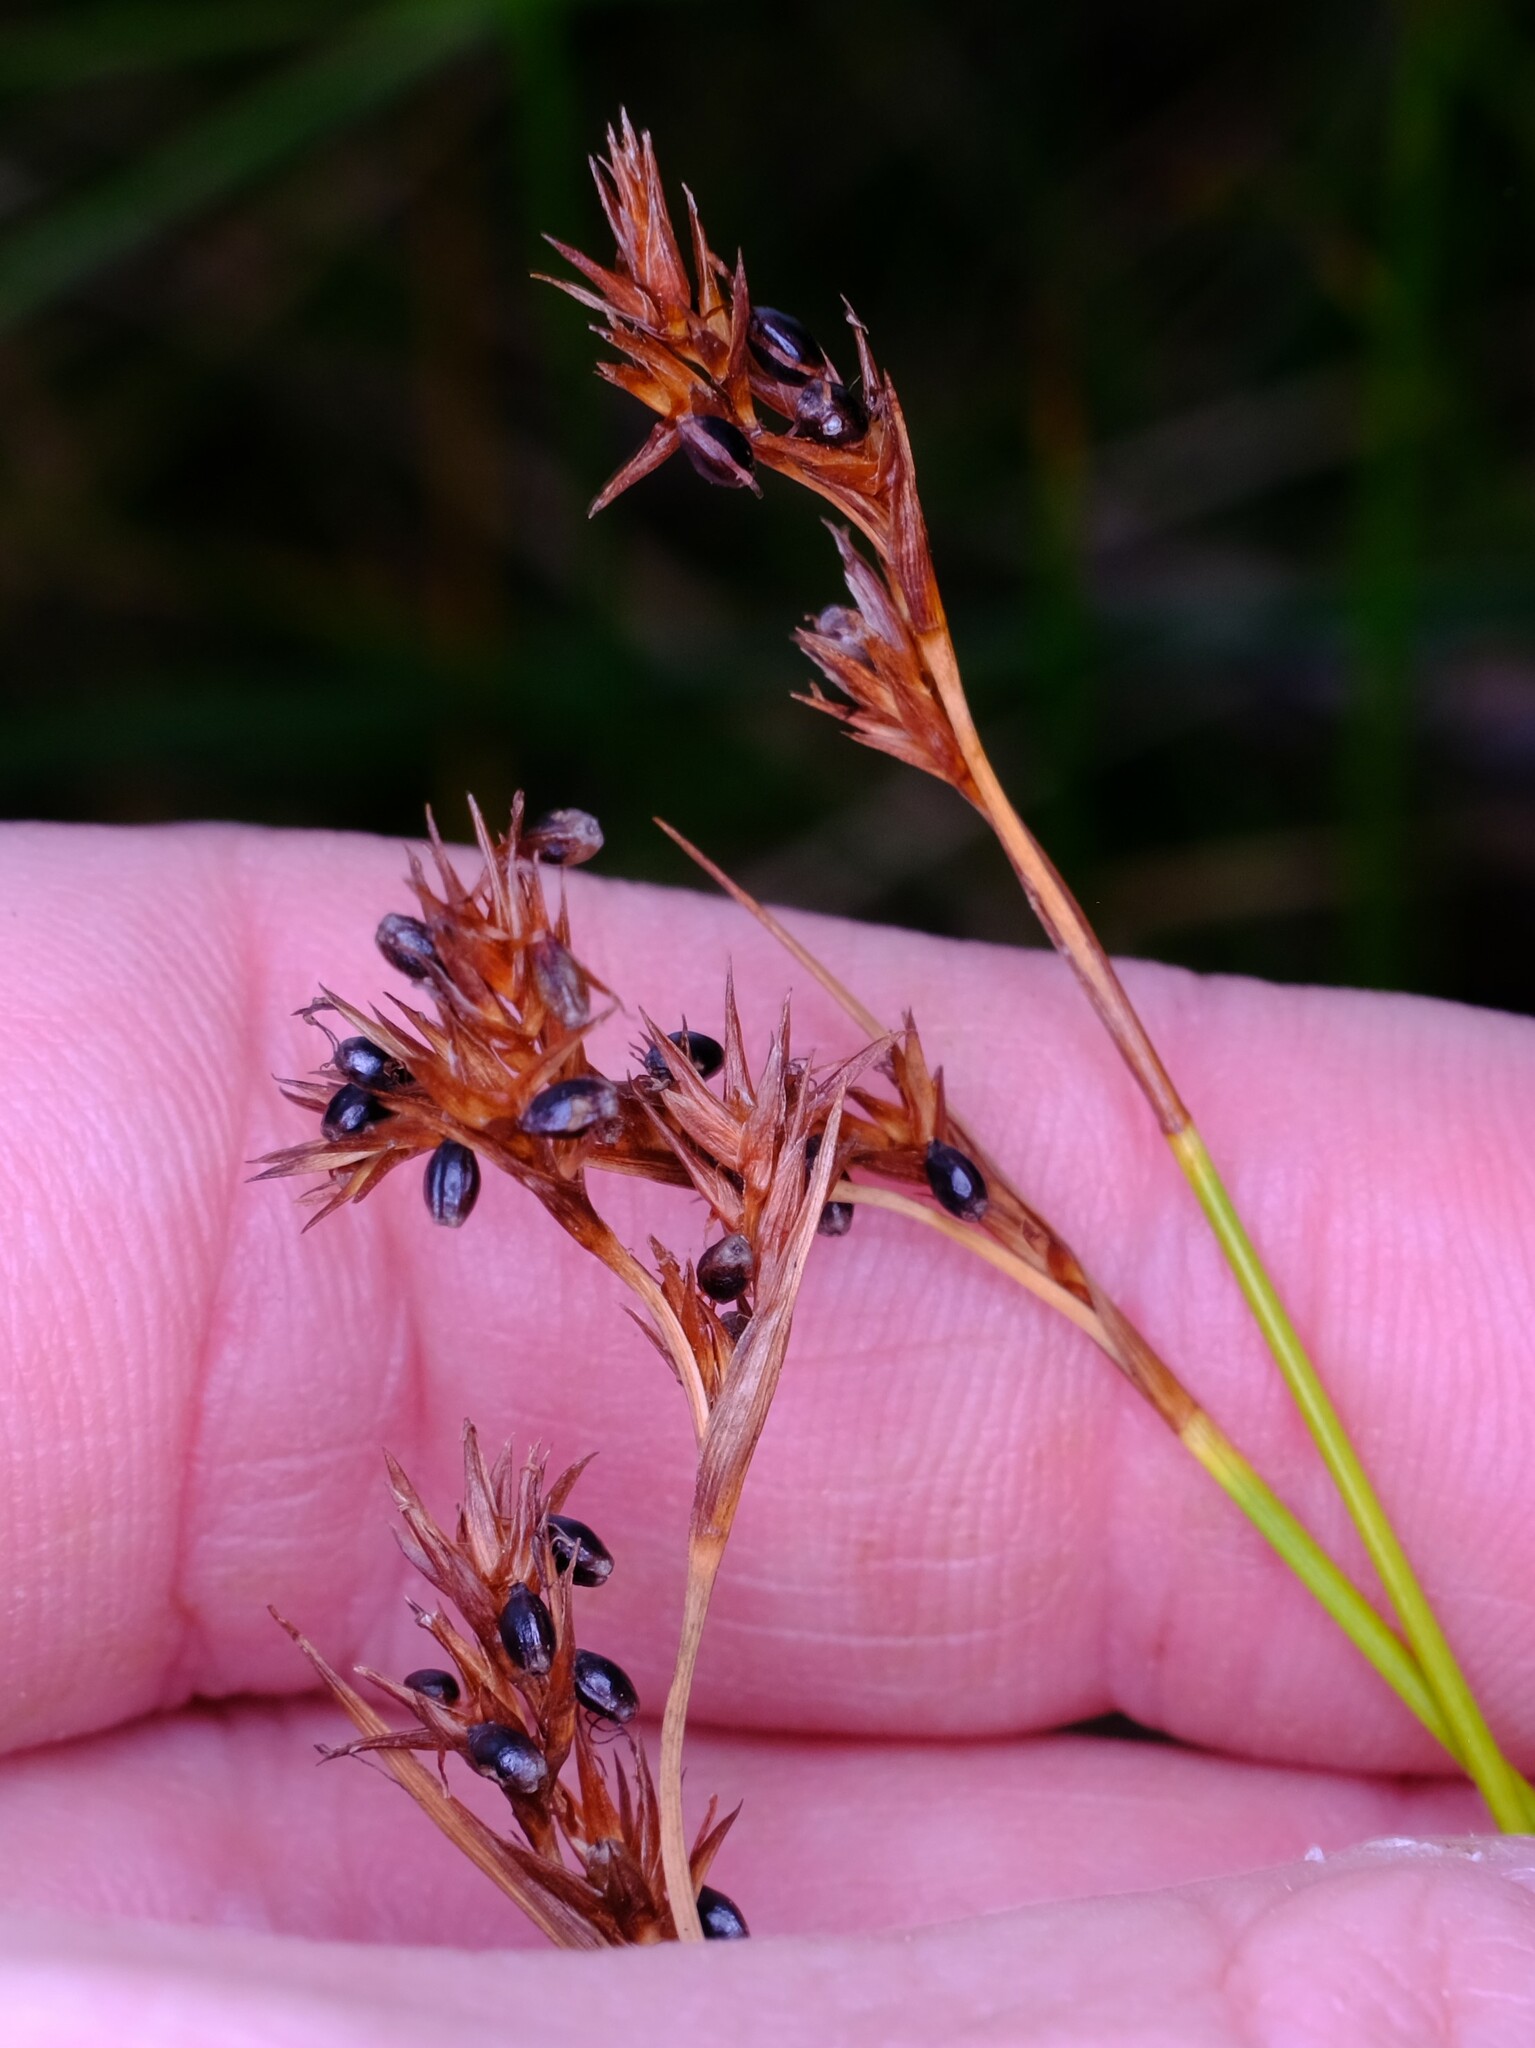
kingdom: Plantae
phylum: Tracheophyta
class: Liliopsida
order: Poales
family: Cyperaceae
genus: Machaerina
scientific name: Machaerina acuta
